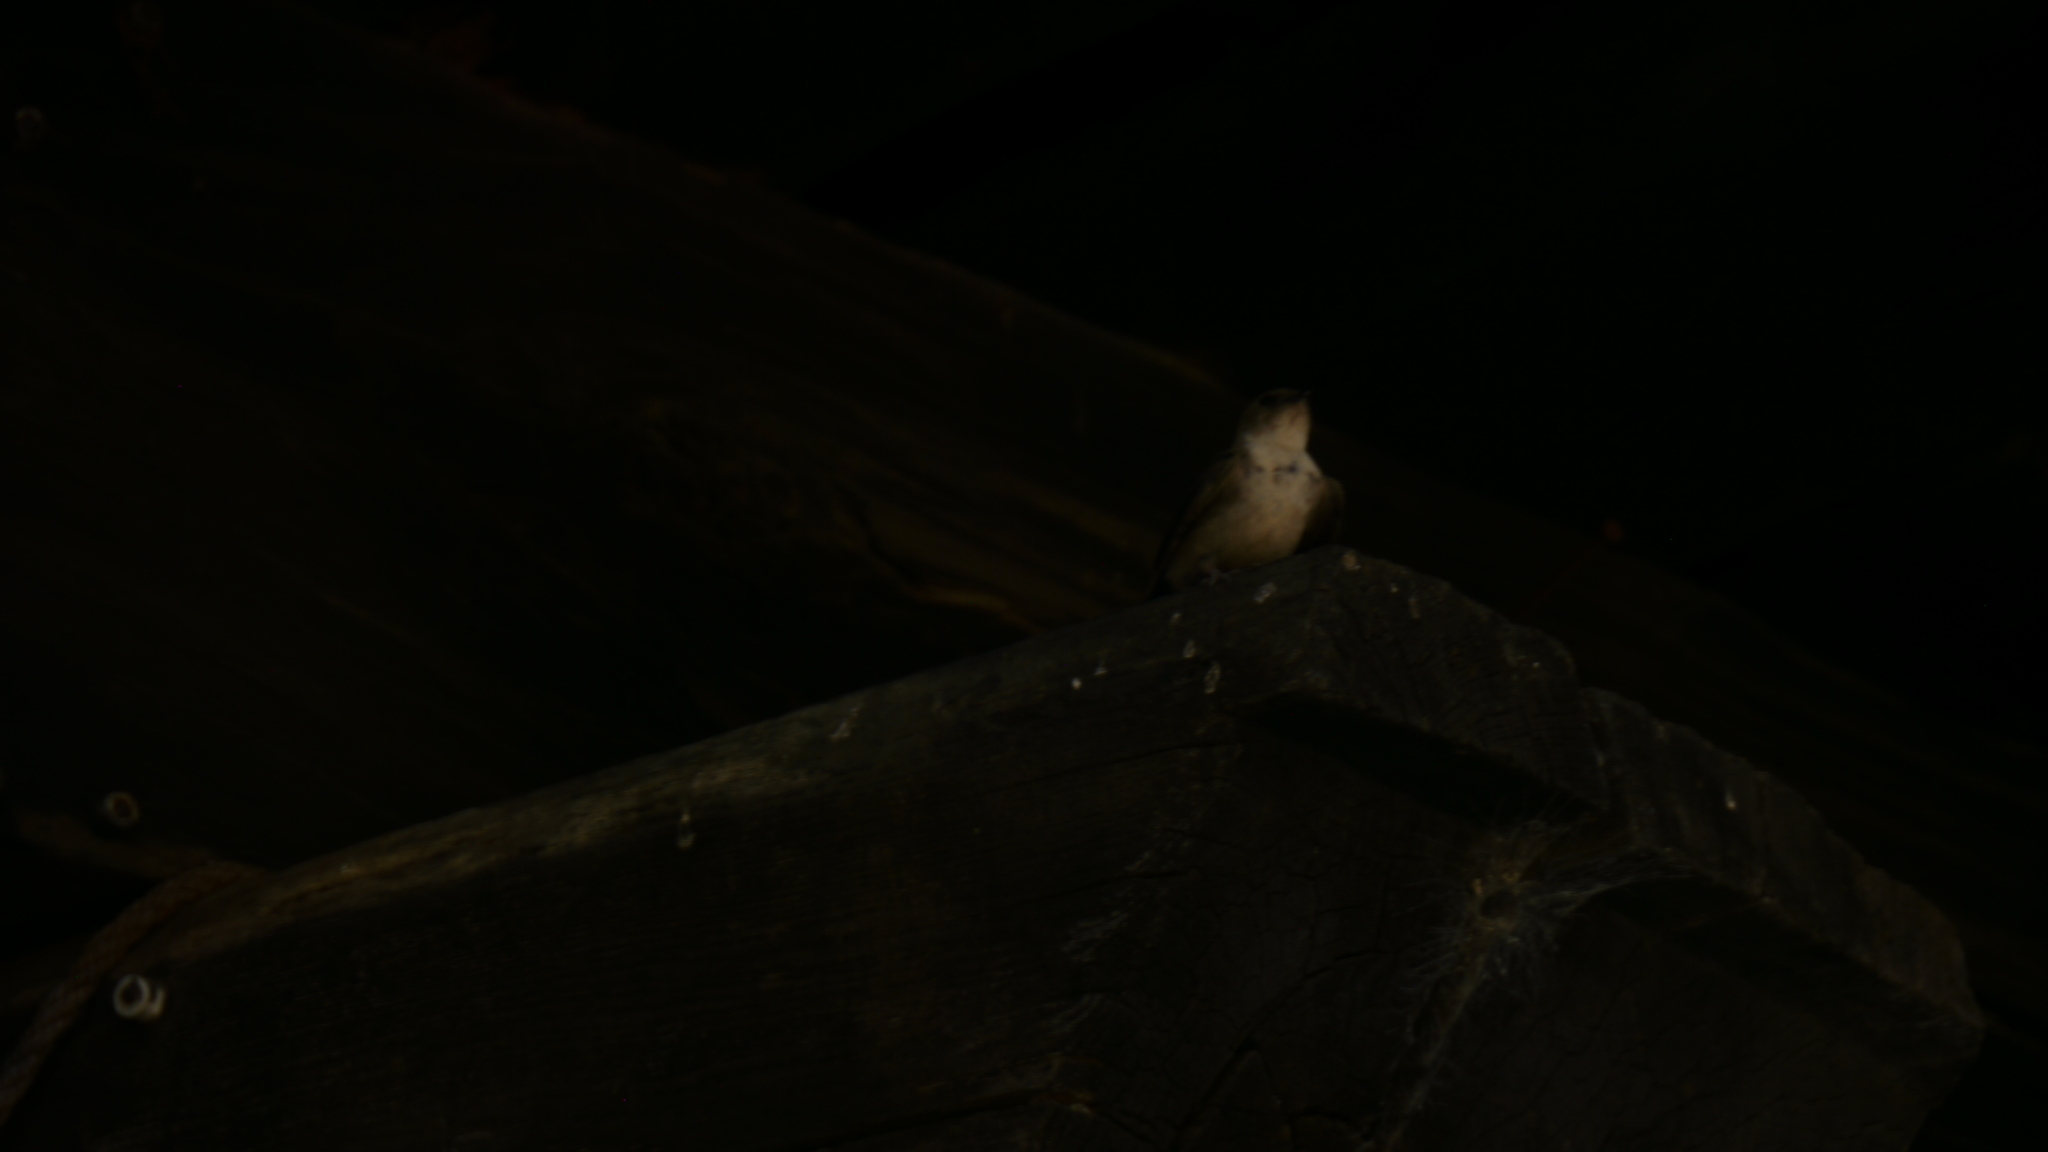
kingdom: Animalia
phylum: Chordata
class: Aves
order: Passeriformes
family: Hirundinidae
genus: Ptyonoprogne
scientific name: Ptyonoprogne rupestris
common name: Eurasian crag martin
